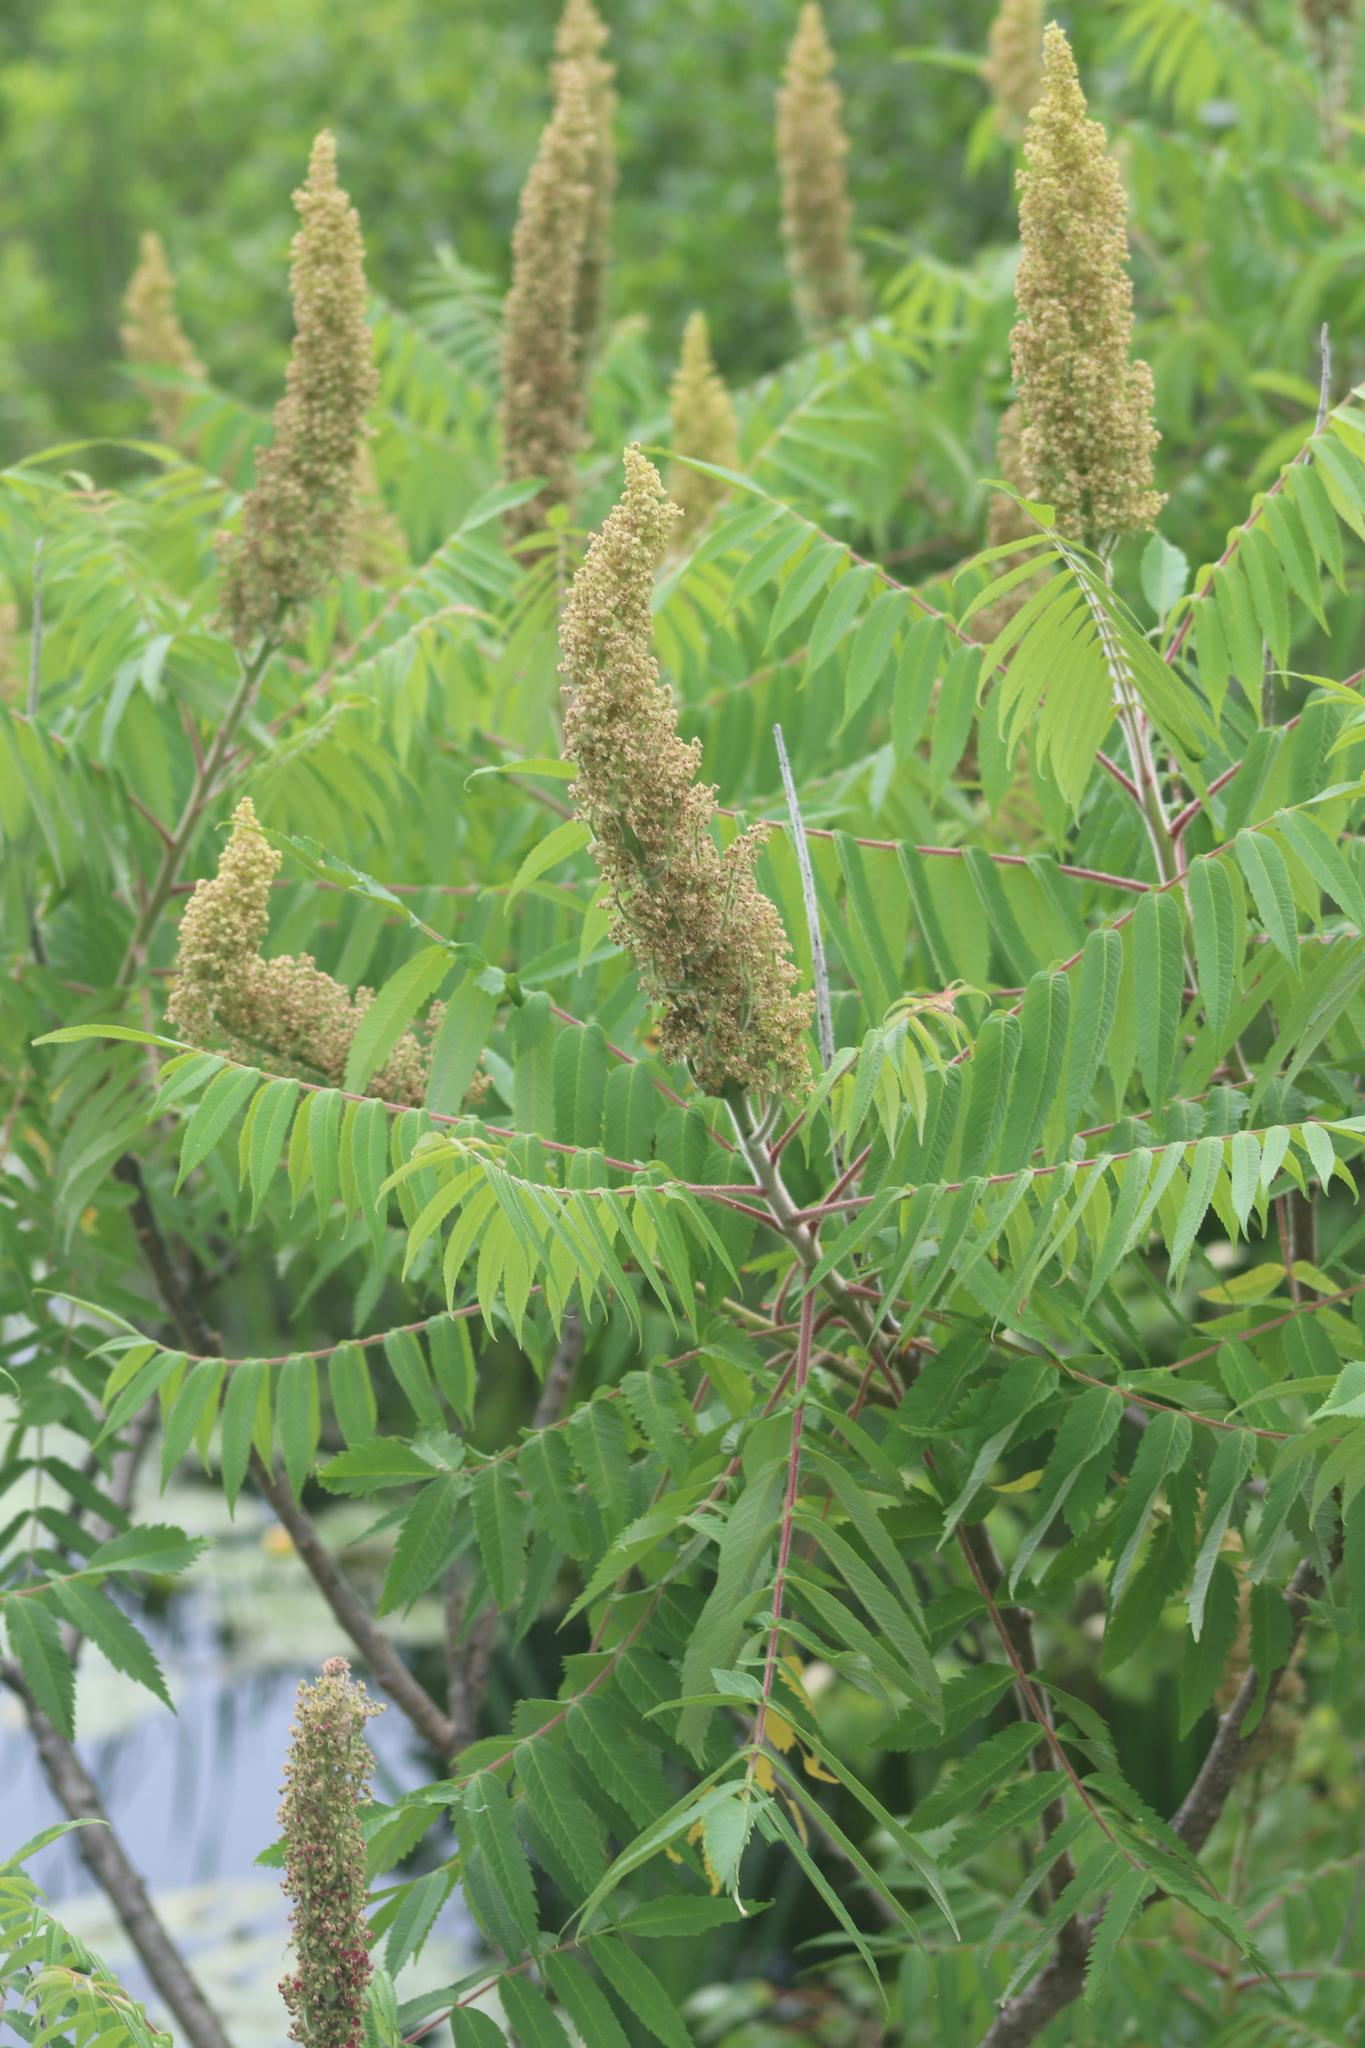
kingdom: Plantae
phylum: Tracheophyta
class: Magnoliopsida
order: Sapindales
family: Anacardiaceae
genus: Rhus
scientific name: Rhus typhina
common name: Staghorn sumac
